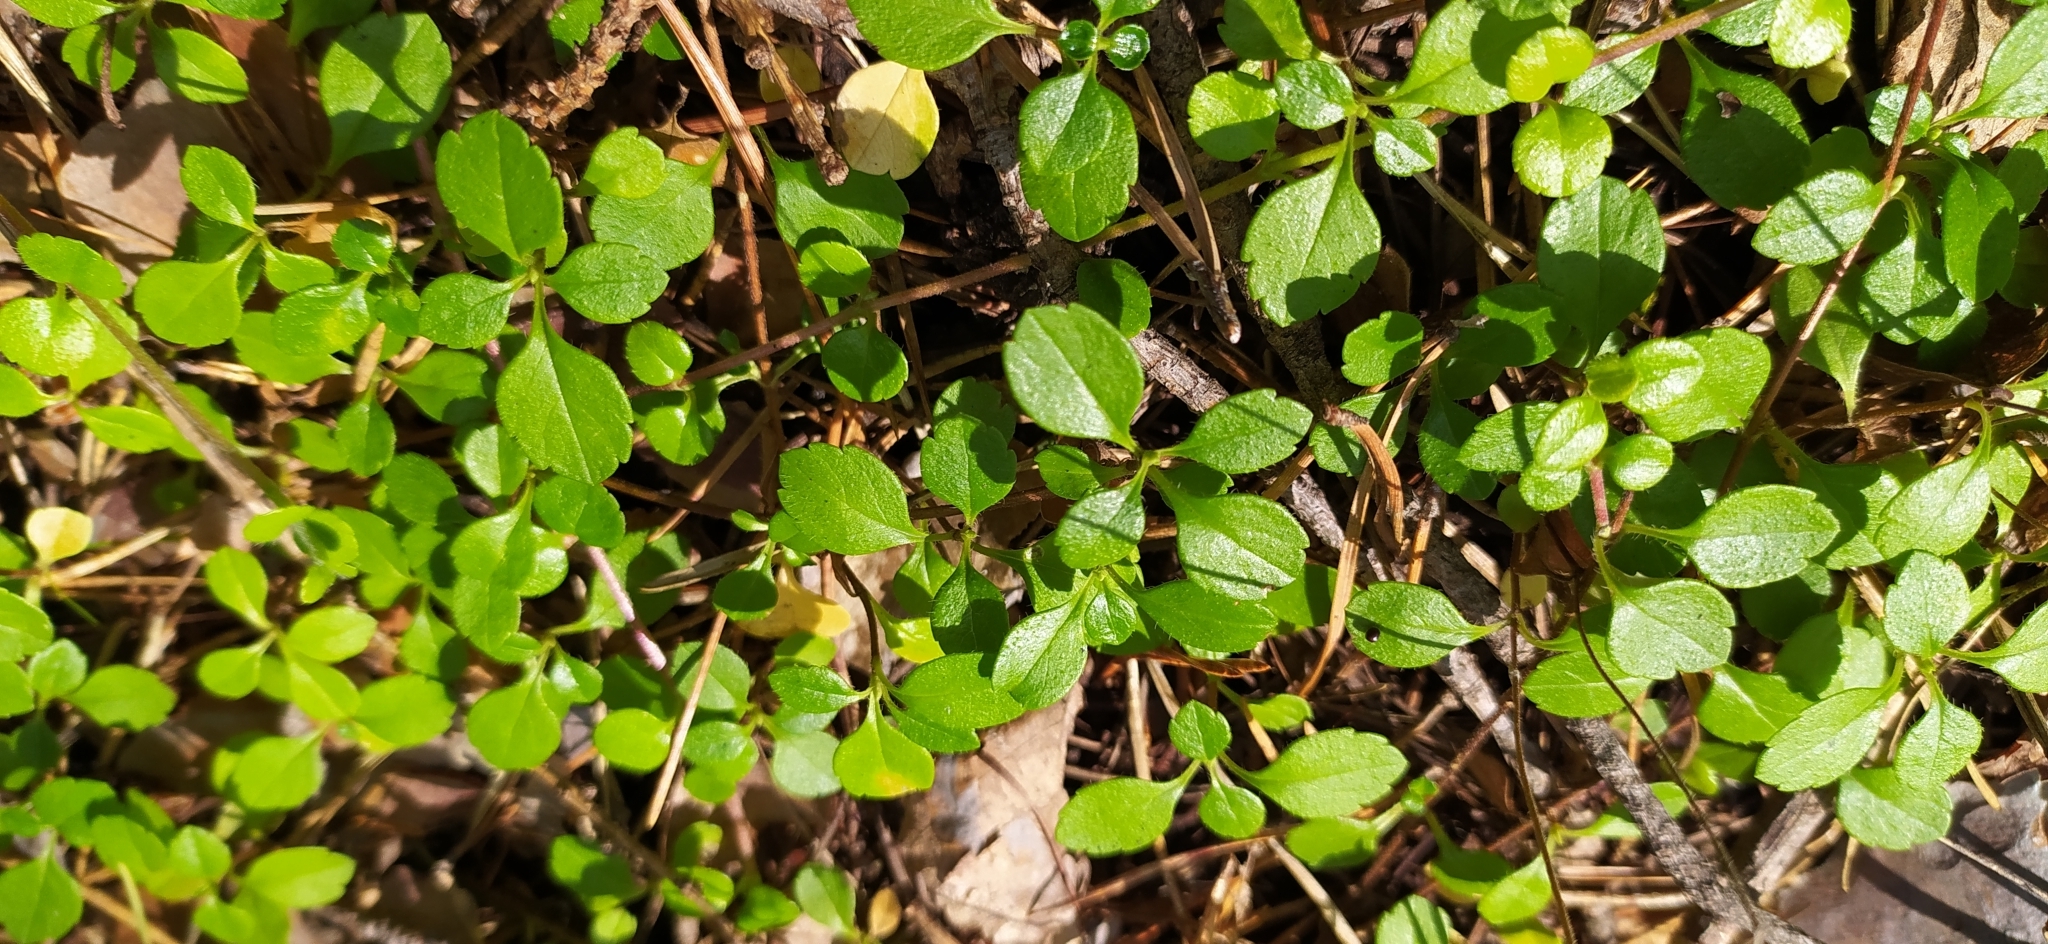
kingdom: Plantae
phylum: Tracheophyta
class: Magnoliopsida
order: Dipsacales
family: Caprifoliaceae
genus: Linnaea
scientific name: Linnaea borealis
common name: Twinflower
